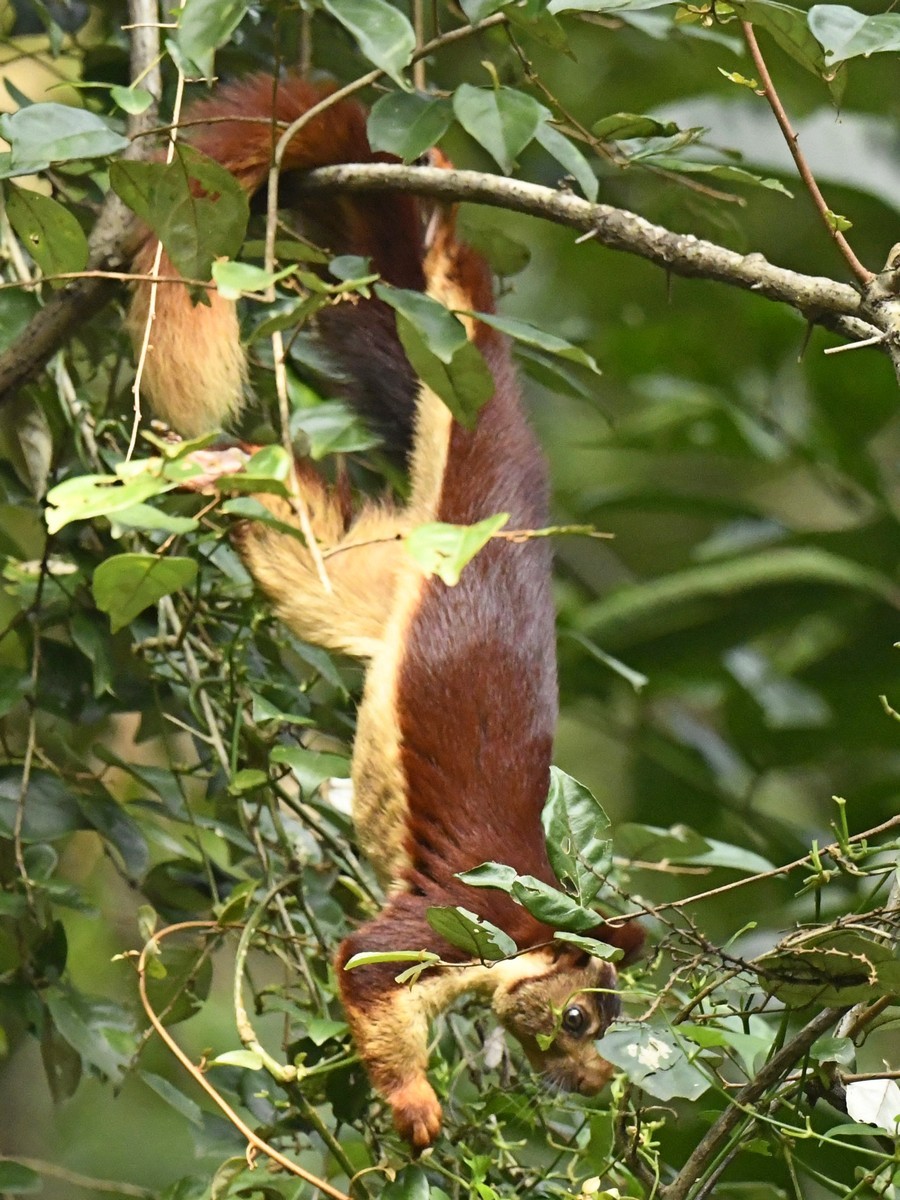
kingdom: Animalia
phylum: Chordata
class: Mammalia
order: Rodentia
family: Sciuridae
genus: Ratufa
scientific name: Ratufa indica
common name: Indian giant squirrel
